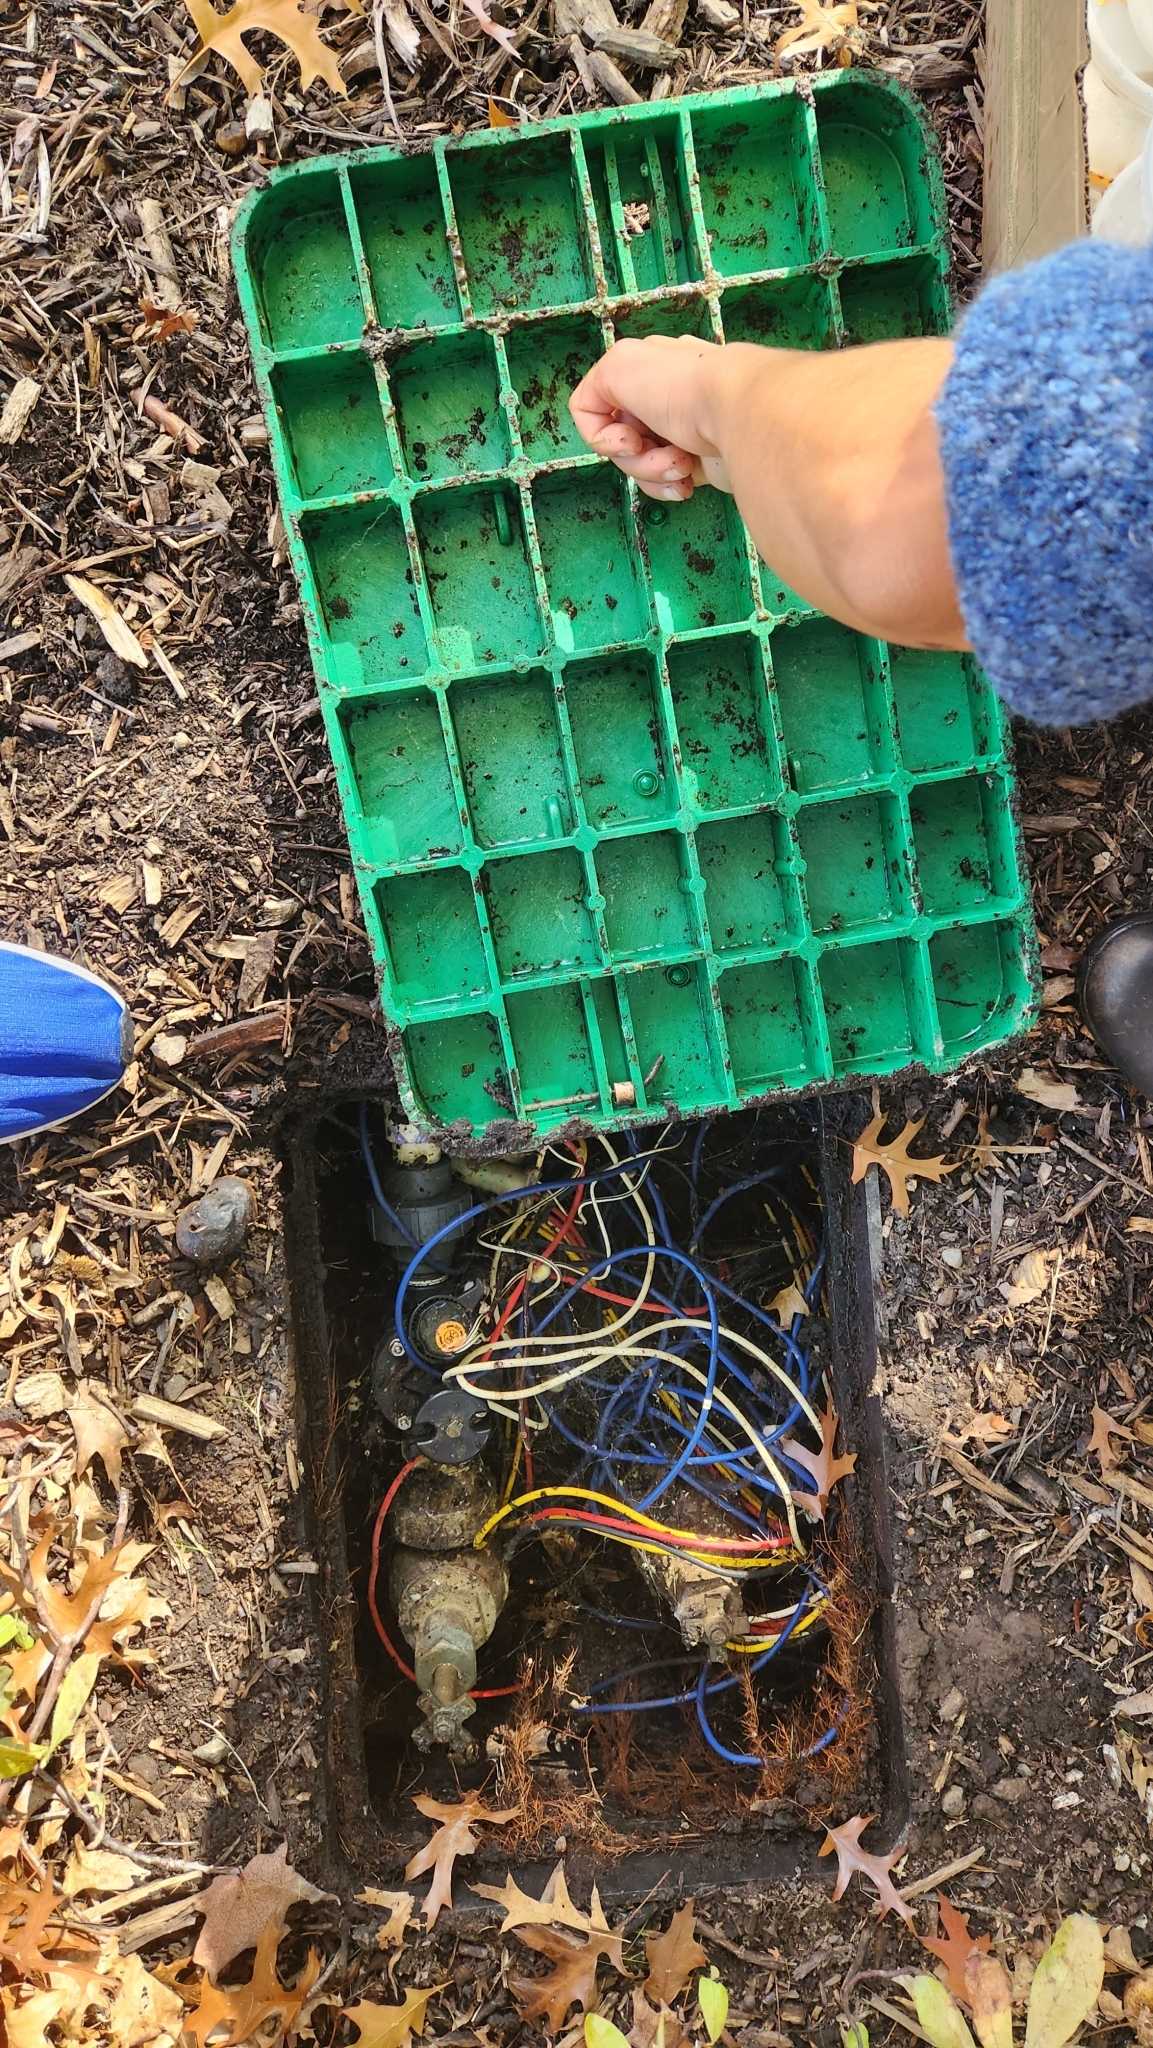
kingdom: Animalia
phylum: Mollusca
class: Gastropoda
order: Stylommatophora
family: Limacidae
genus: Limacus
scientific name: Limacus flavus
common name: Yellow gardenslug
